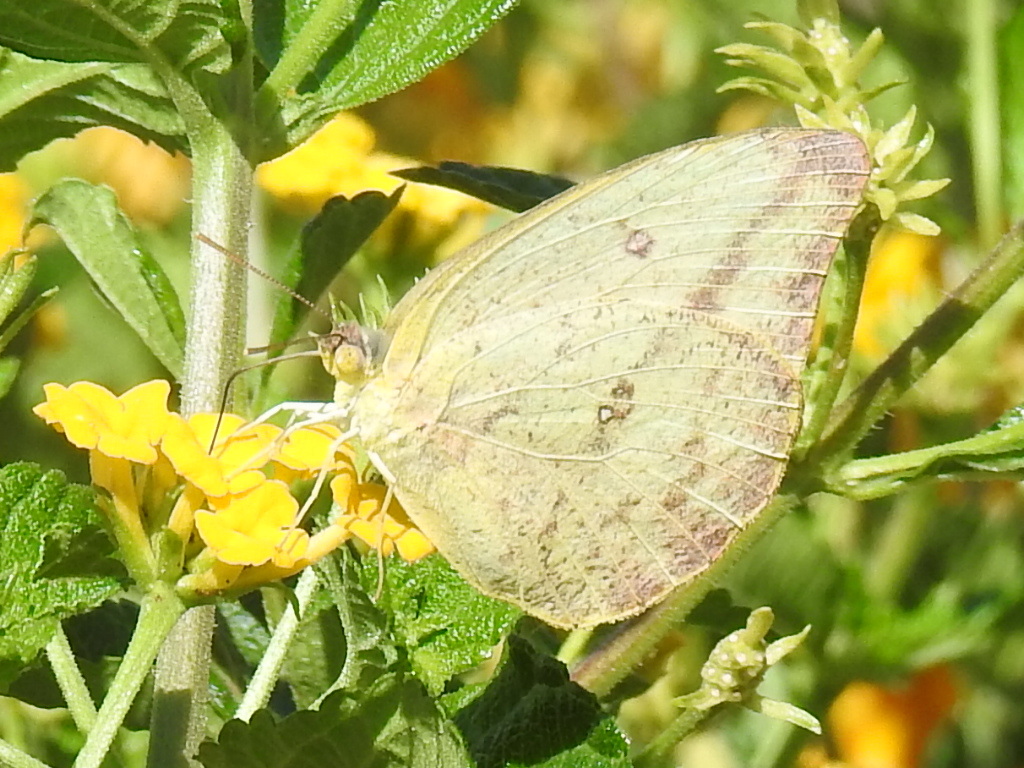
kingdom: Animalia
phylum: Arthropoda
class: Insecta
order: Lepidoptera
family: Pieridae
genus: Phoebis
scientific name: Phoebis agarithe
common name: Large orange sulphur
